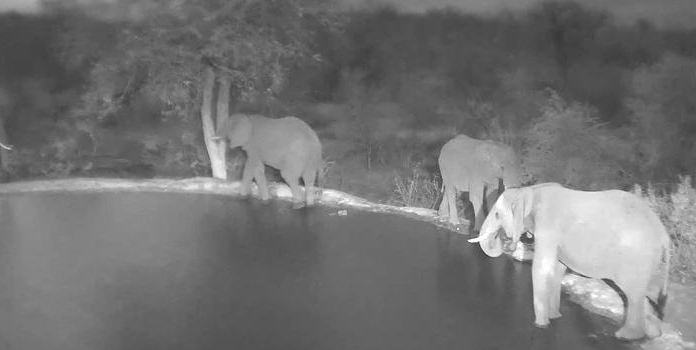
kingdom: Animalia
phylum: Chordata
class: Mammalia
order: Proboscidea
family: Elephantidae
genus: Loxodonta
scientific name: Loxodonta africana
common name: African elephant
